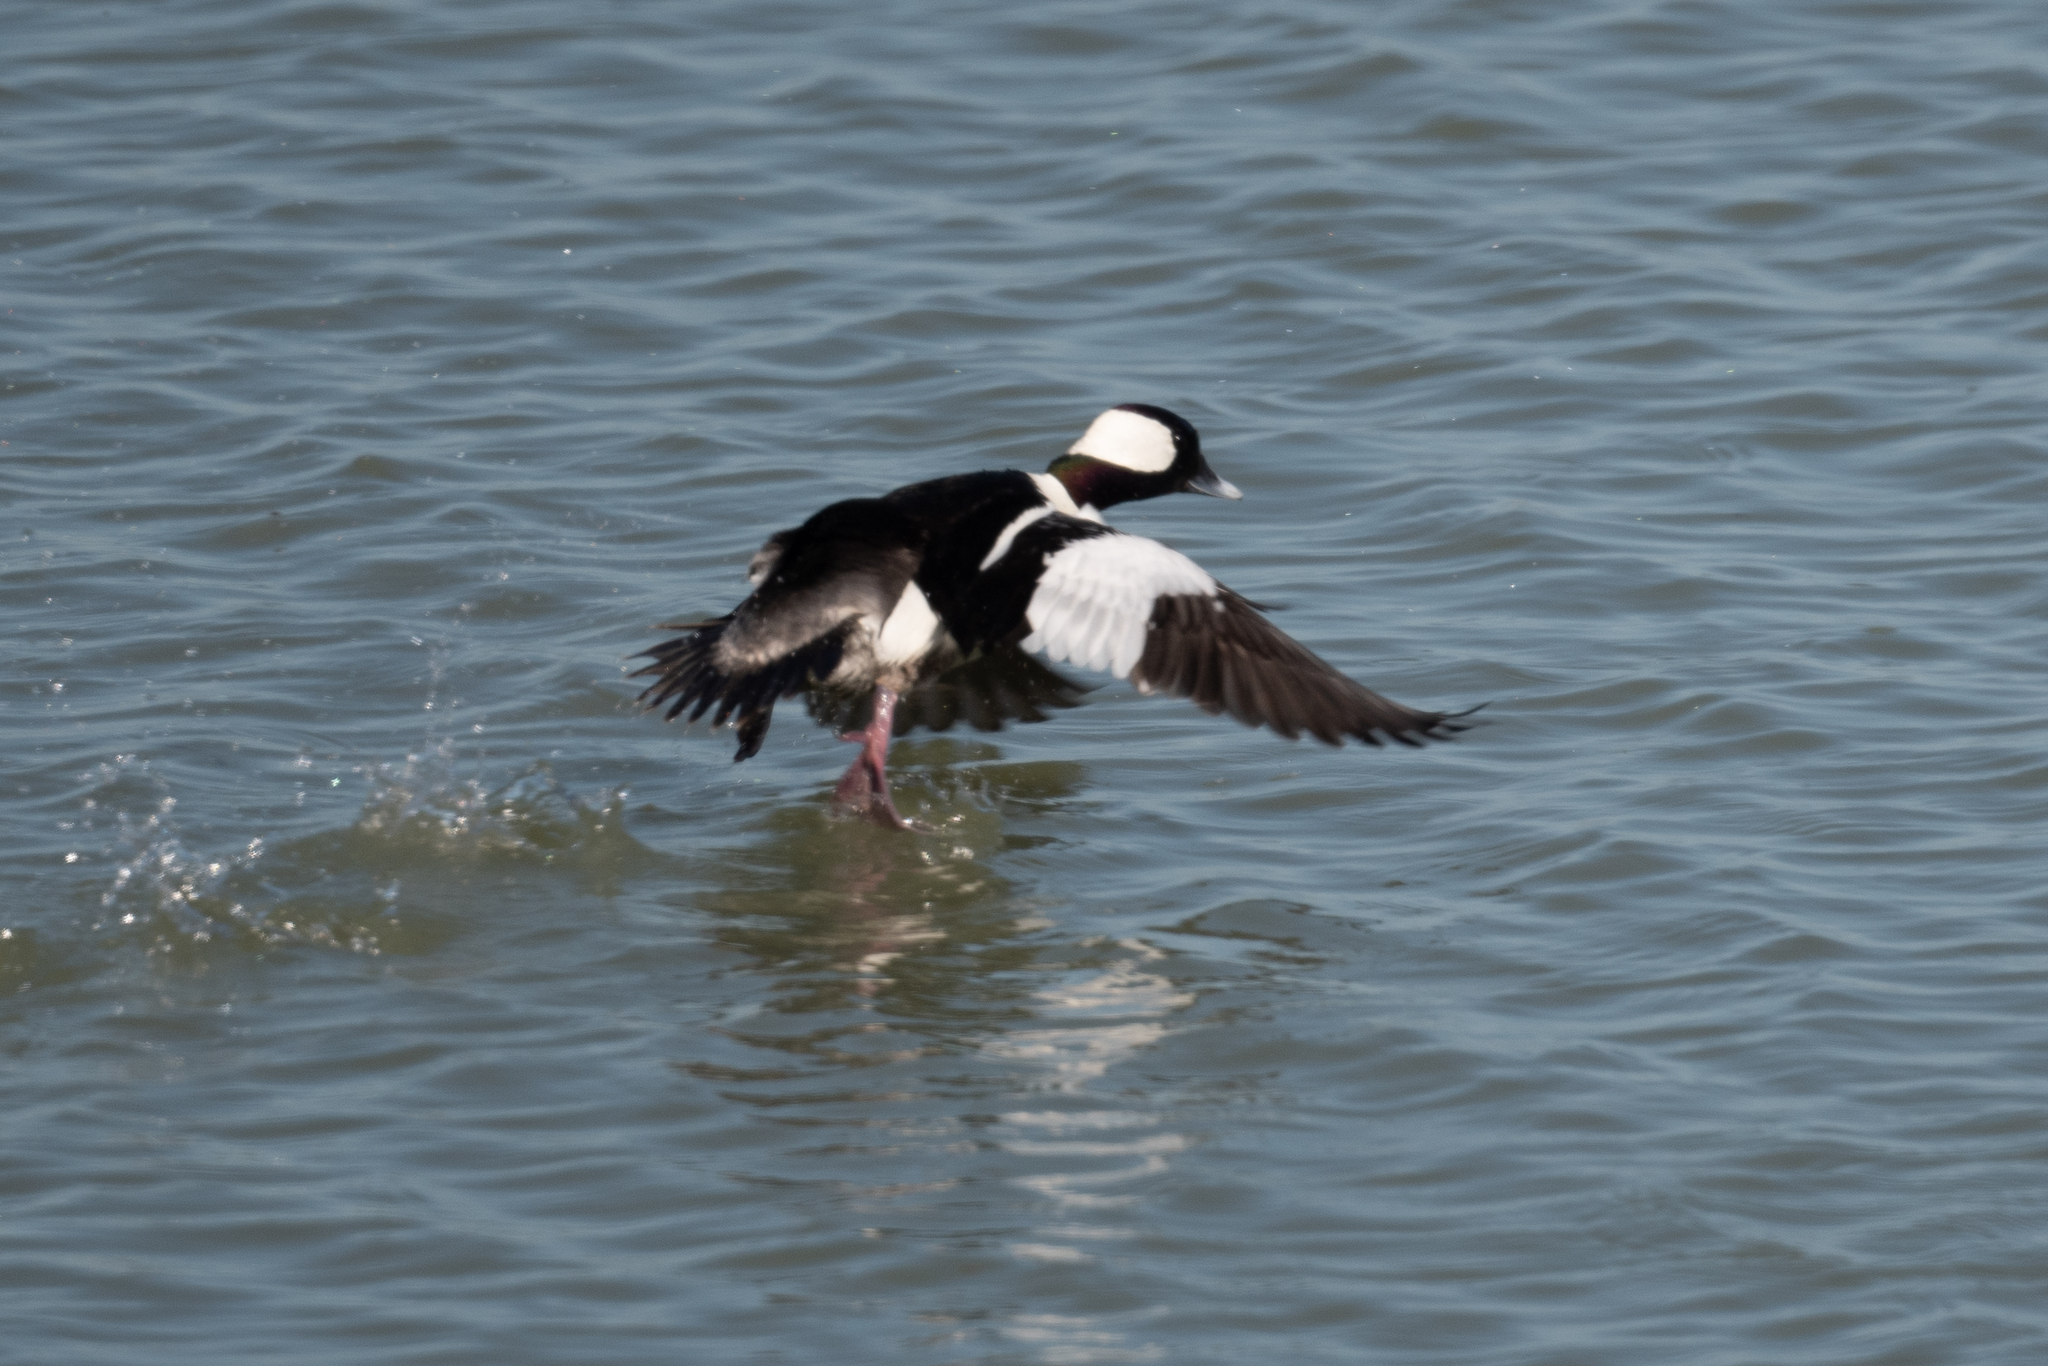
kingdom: Animalia
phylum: Chordata
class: Aves
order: Anseriformes
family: Anatidae
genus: Bucephala
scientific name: Bucephala albeola
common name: Bufflehead
